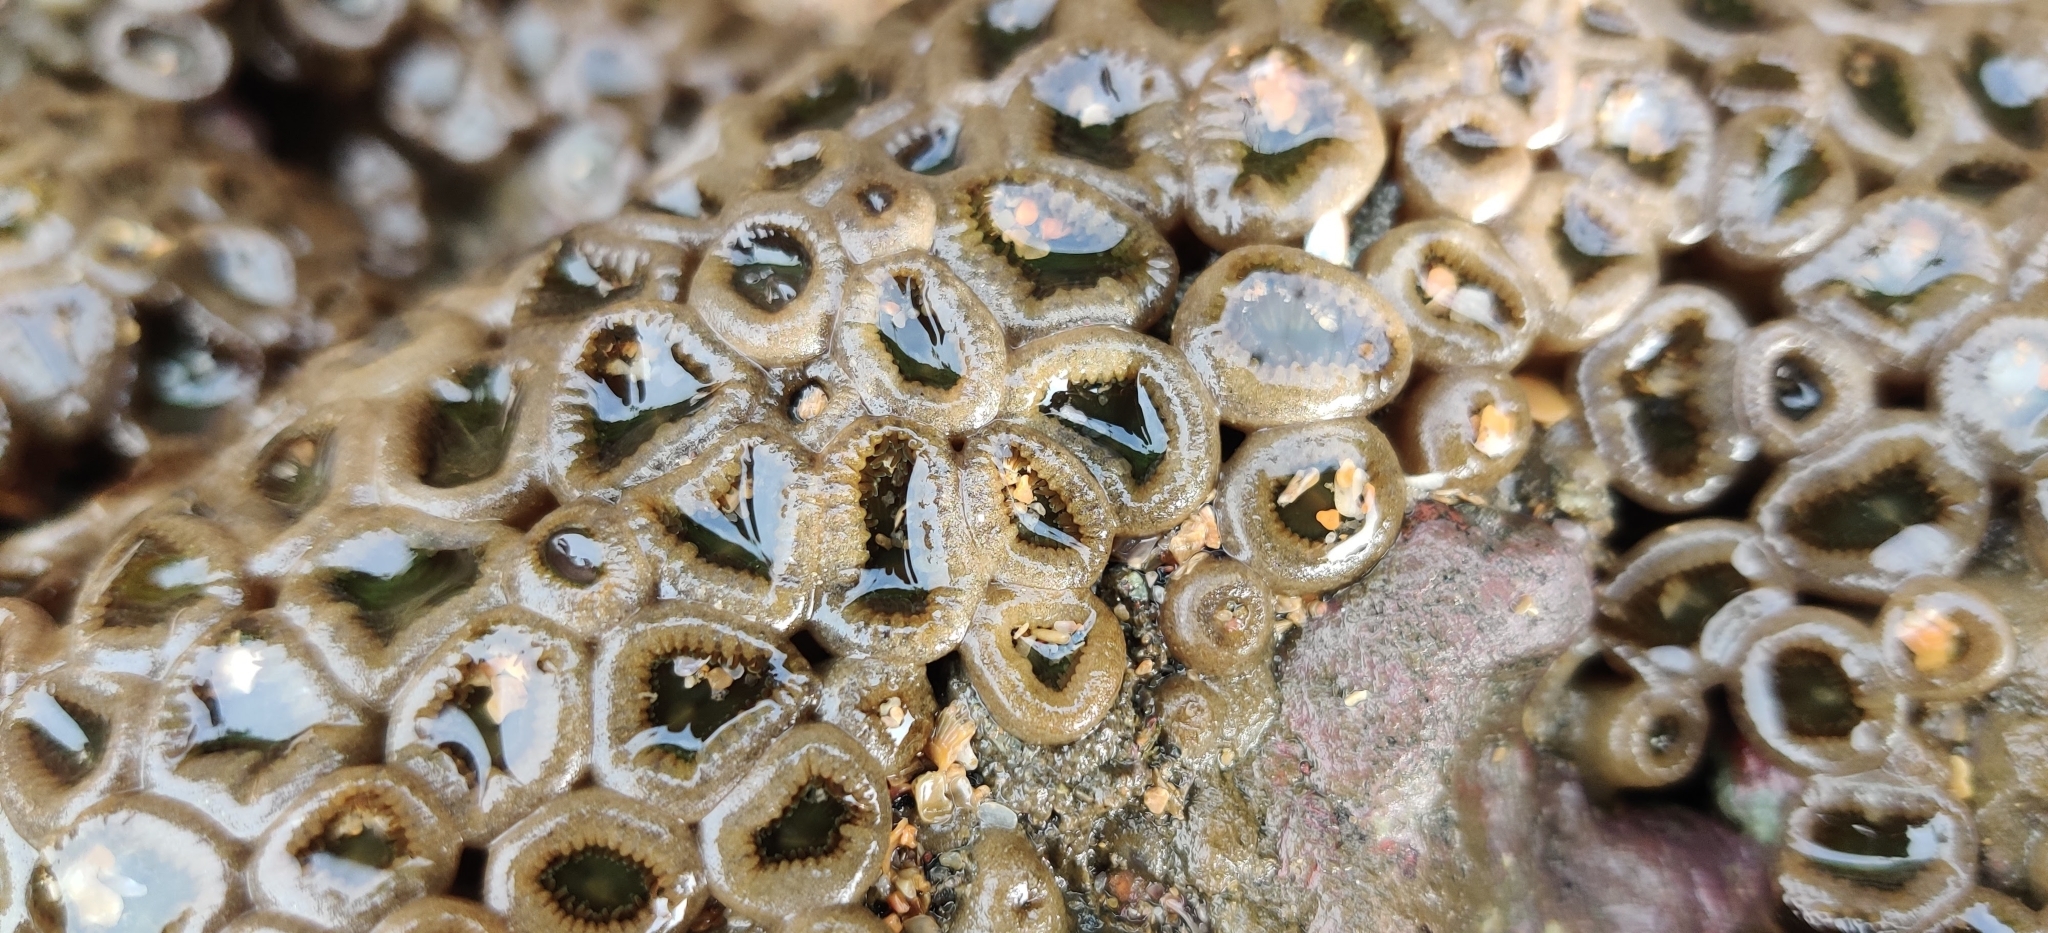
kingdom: Animalia
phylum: Cnidaria
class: Anthozoa
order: Zoantharia
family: Sphenopidae
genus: Palythoa
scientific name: Palythoa mutuki
